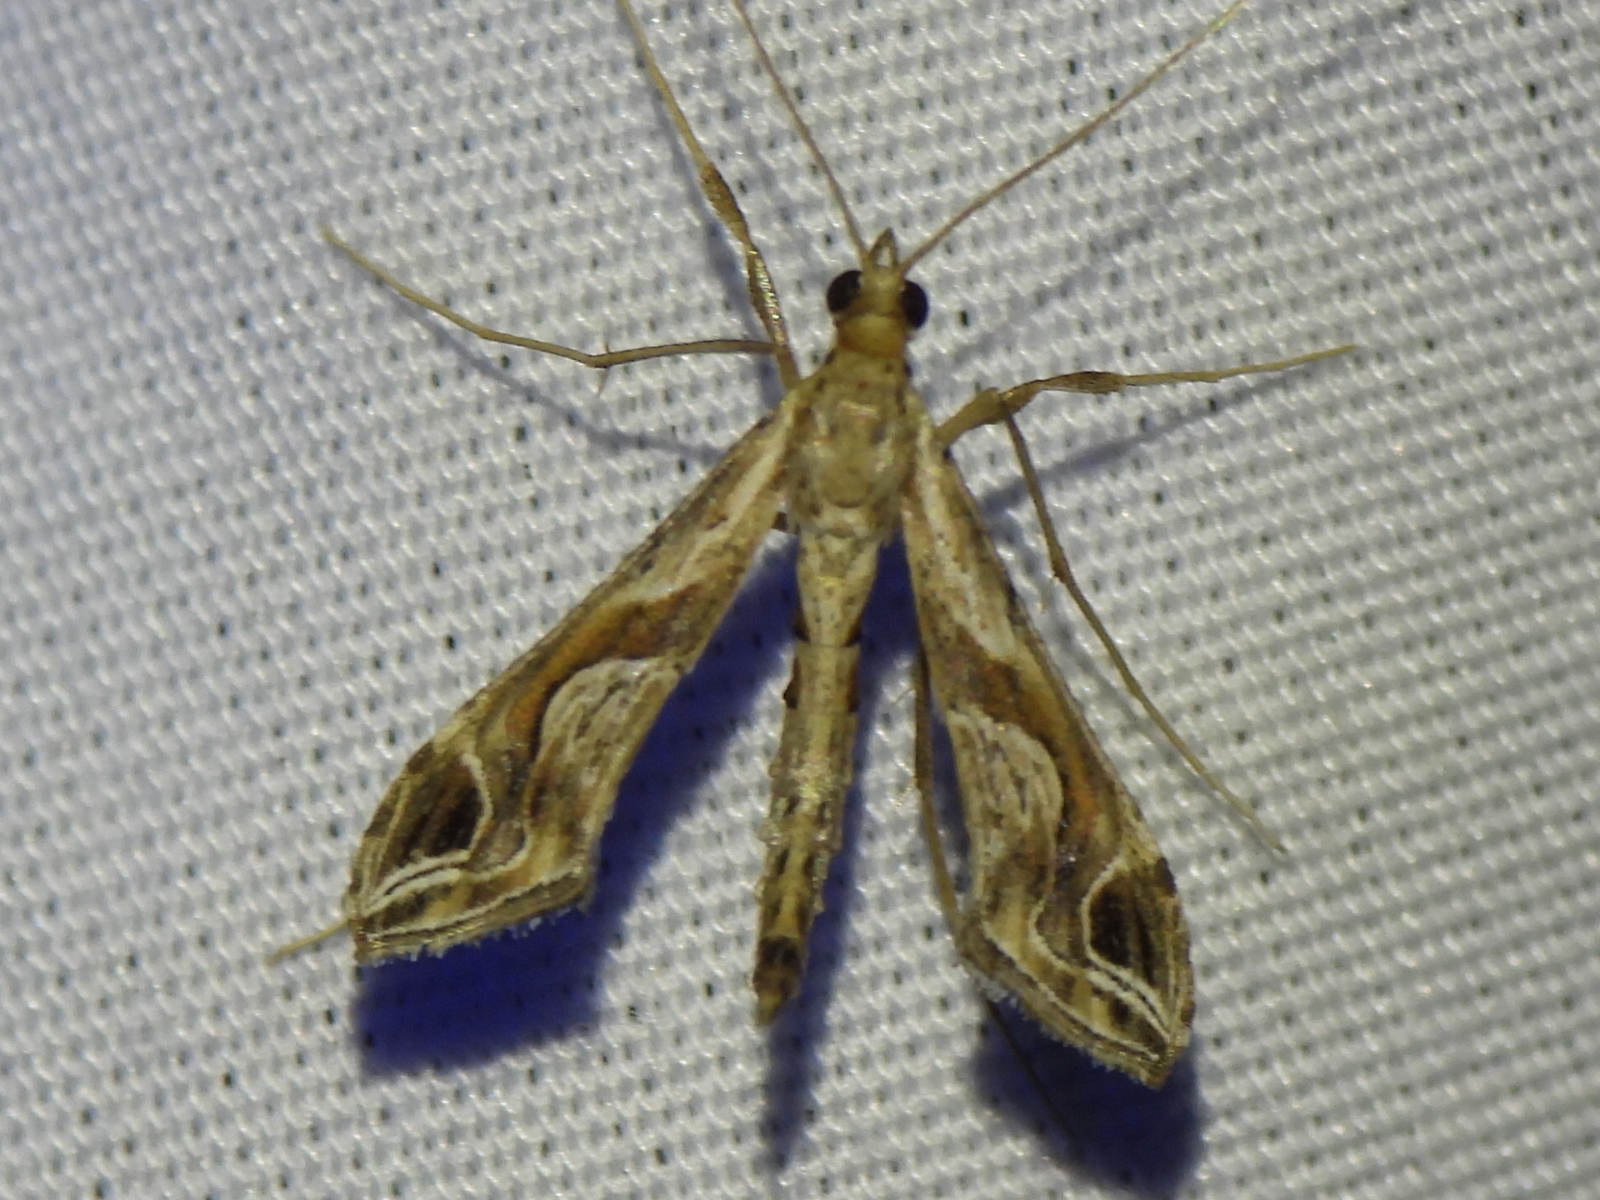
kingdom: Animalia
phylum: Arthropoda
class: Insecta
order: Lepidoptera
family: Crambidae
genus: Lineodes
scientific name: Lineodes integra
